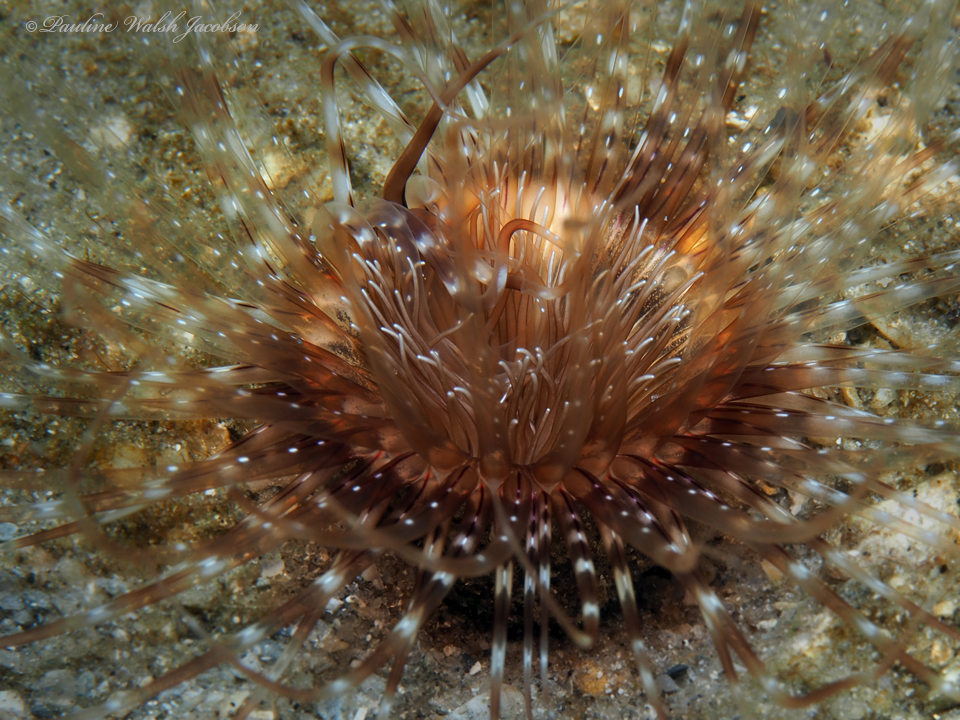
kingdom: Animalia
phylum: Cnidaria
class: Anthozoa
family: Cerianthidae
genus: Ceriantheopsis
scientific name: Ceriantheopsis americana
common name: American tube-dwelling anemone
